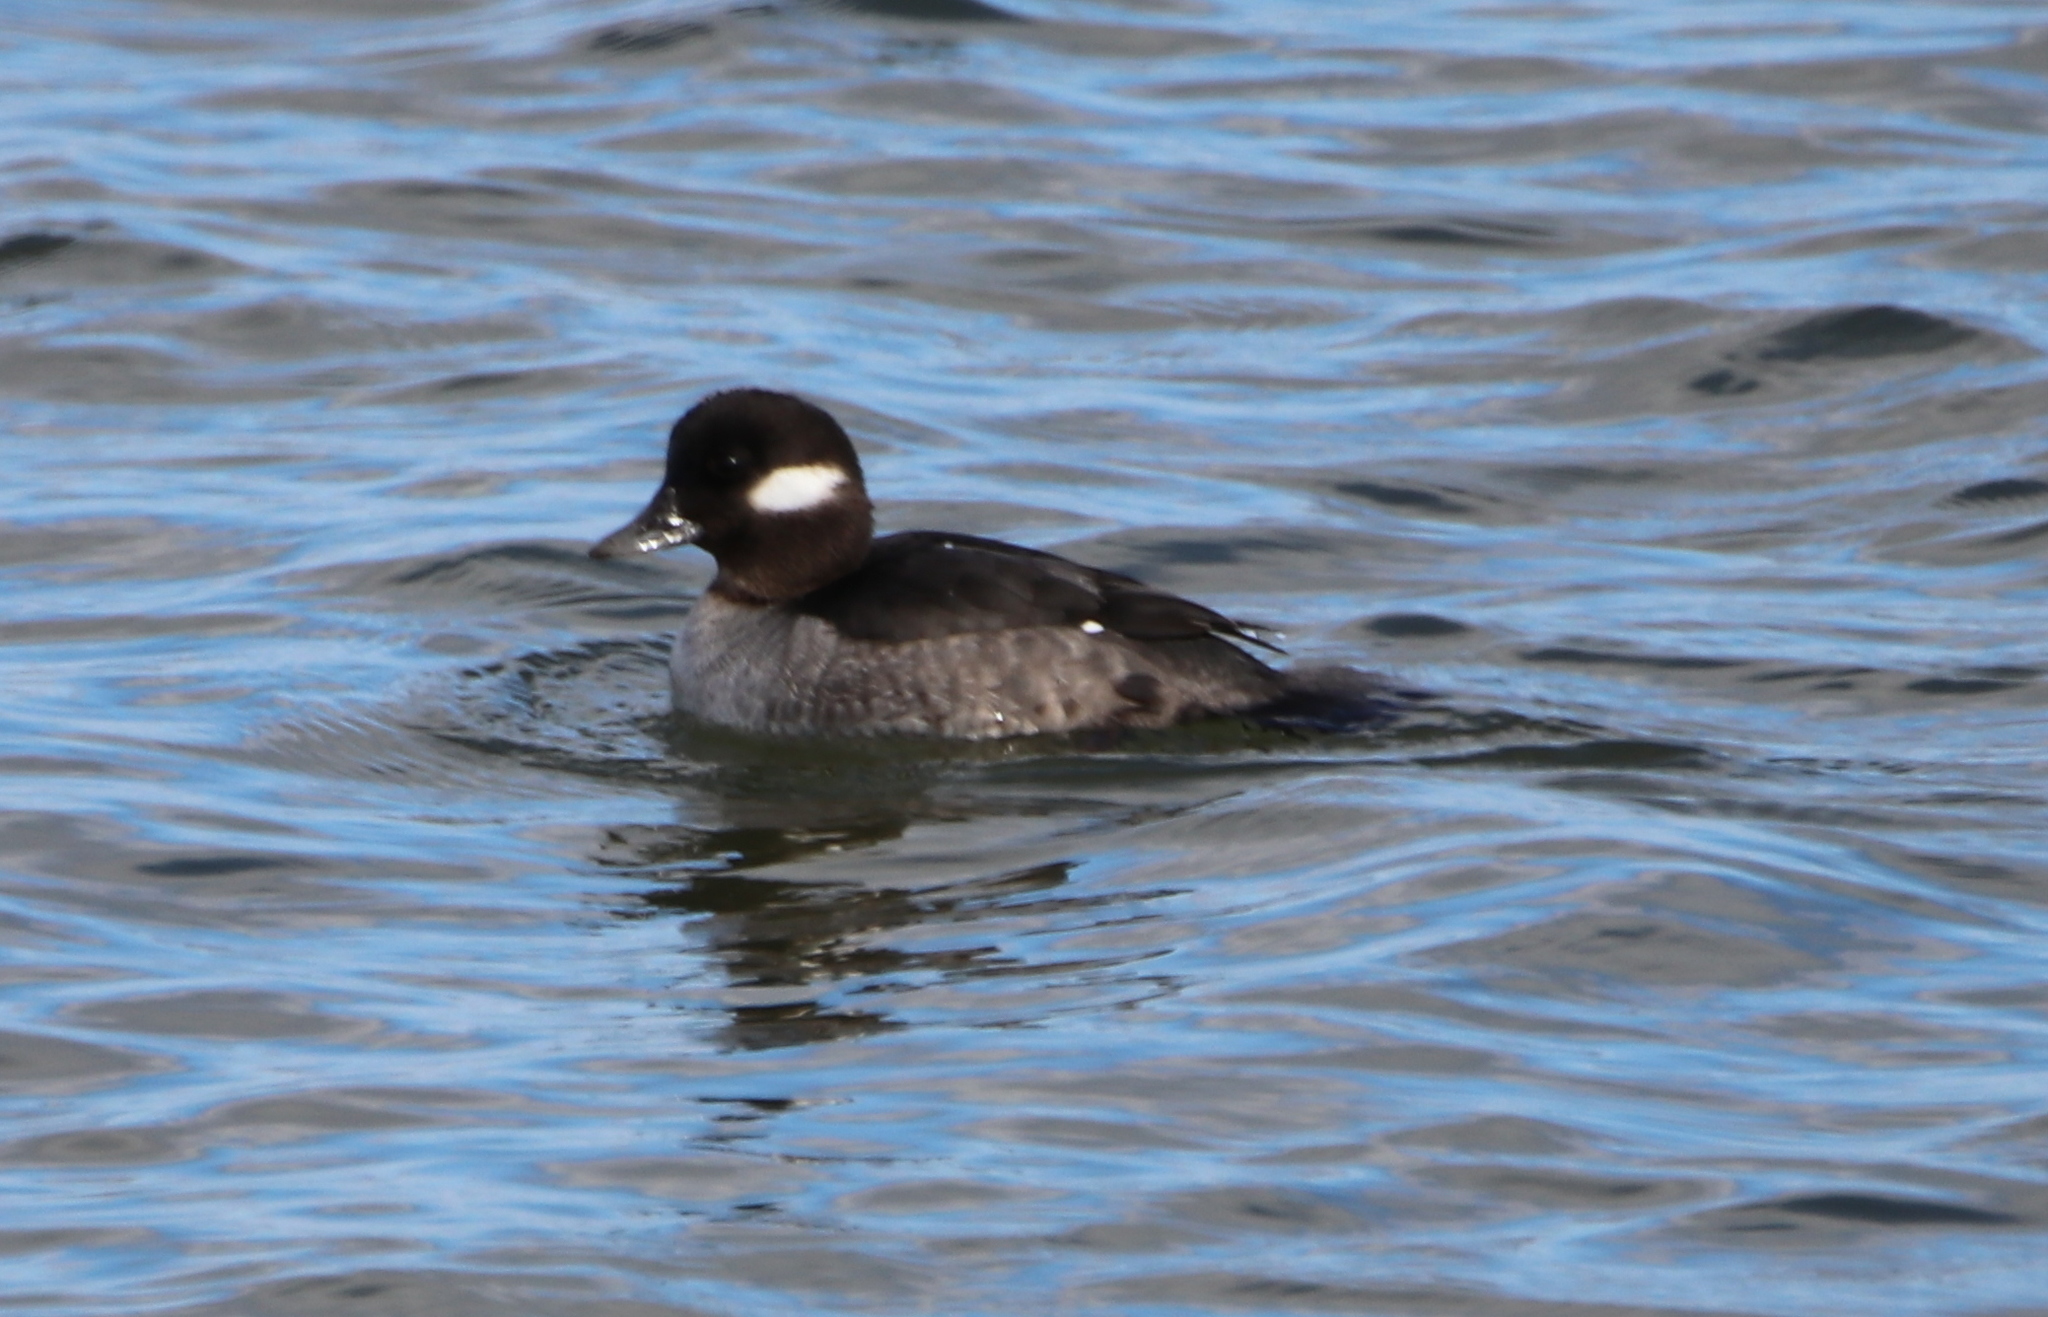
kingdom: Animalia
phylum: Chordata
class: Aves
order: Anseriformes
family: Anatidae
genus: Bucephala
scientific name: Bucephala albeola
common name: Bufflehead
